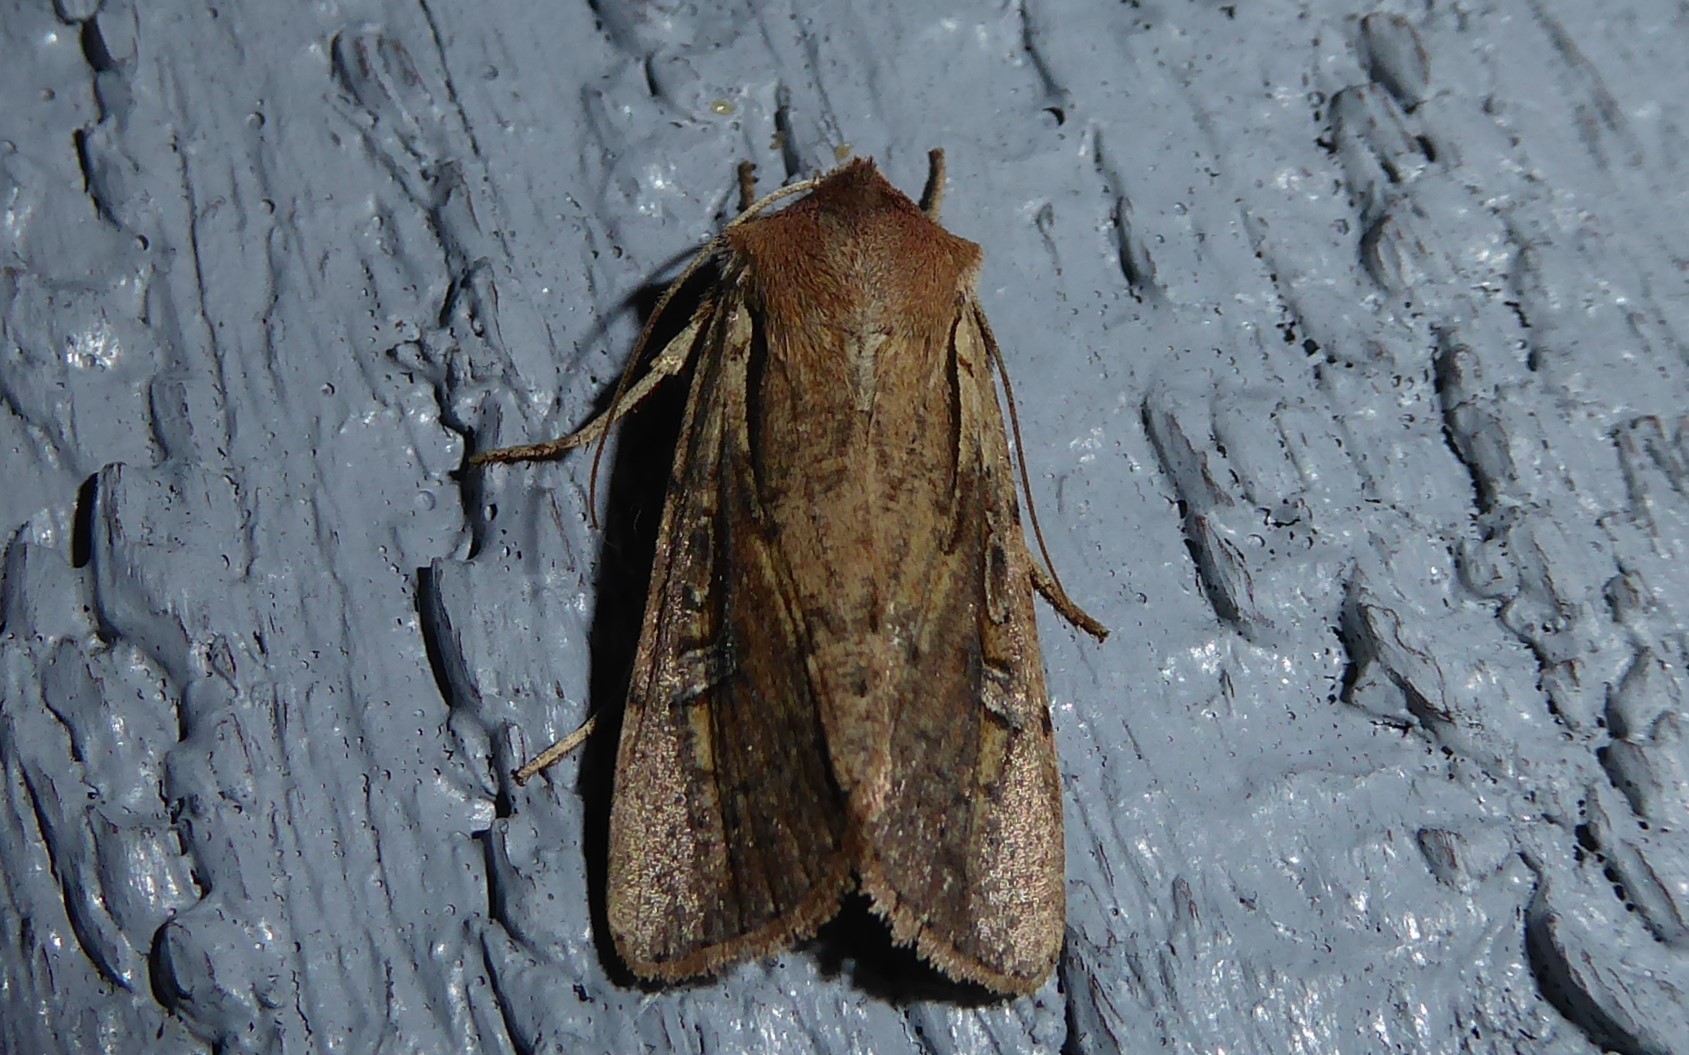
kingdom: Animalia
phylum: Arthropoda
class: Insecta
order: Lepidoptera
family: Noctuidae
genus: Ichneutica
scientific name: Ichneutica atristriga
